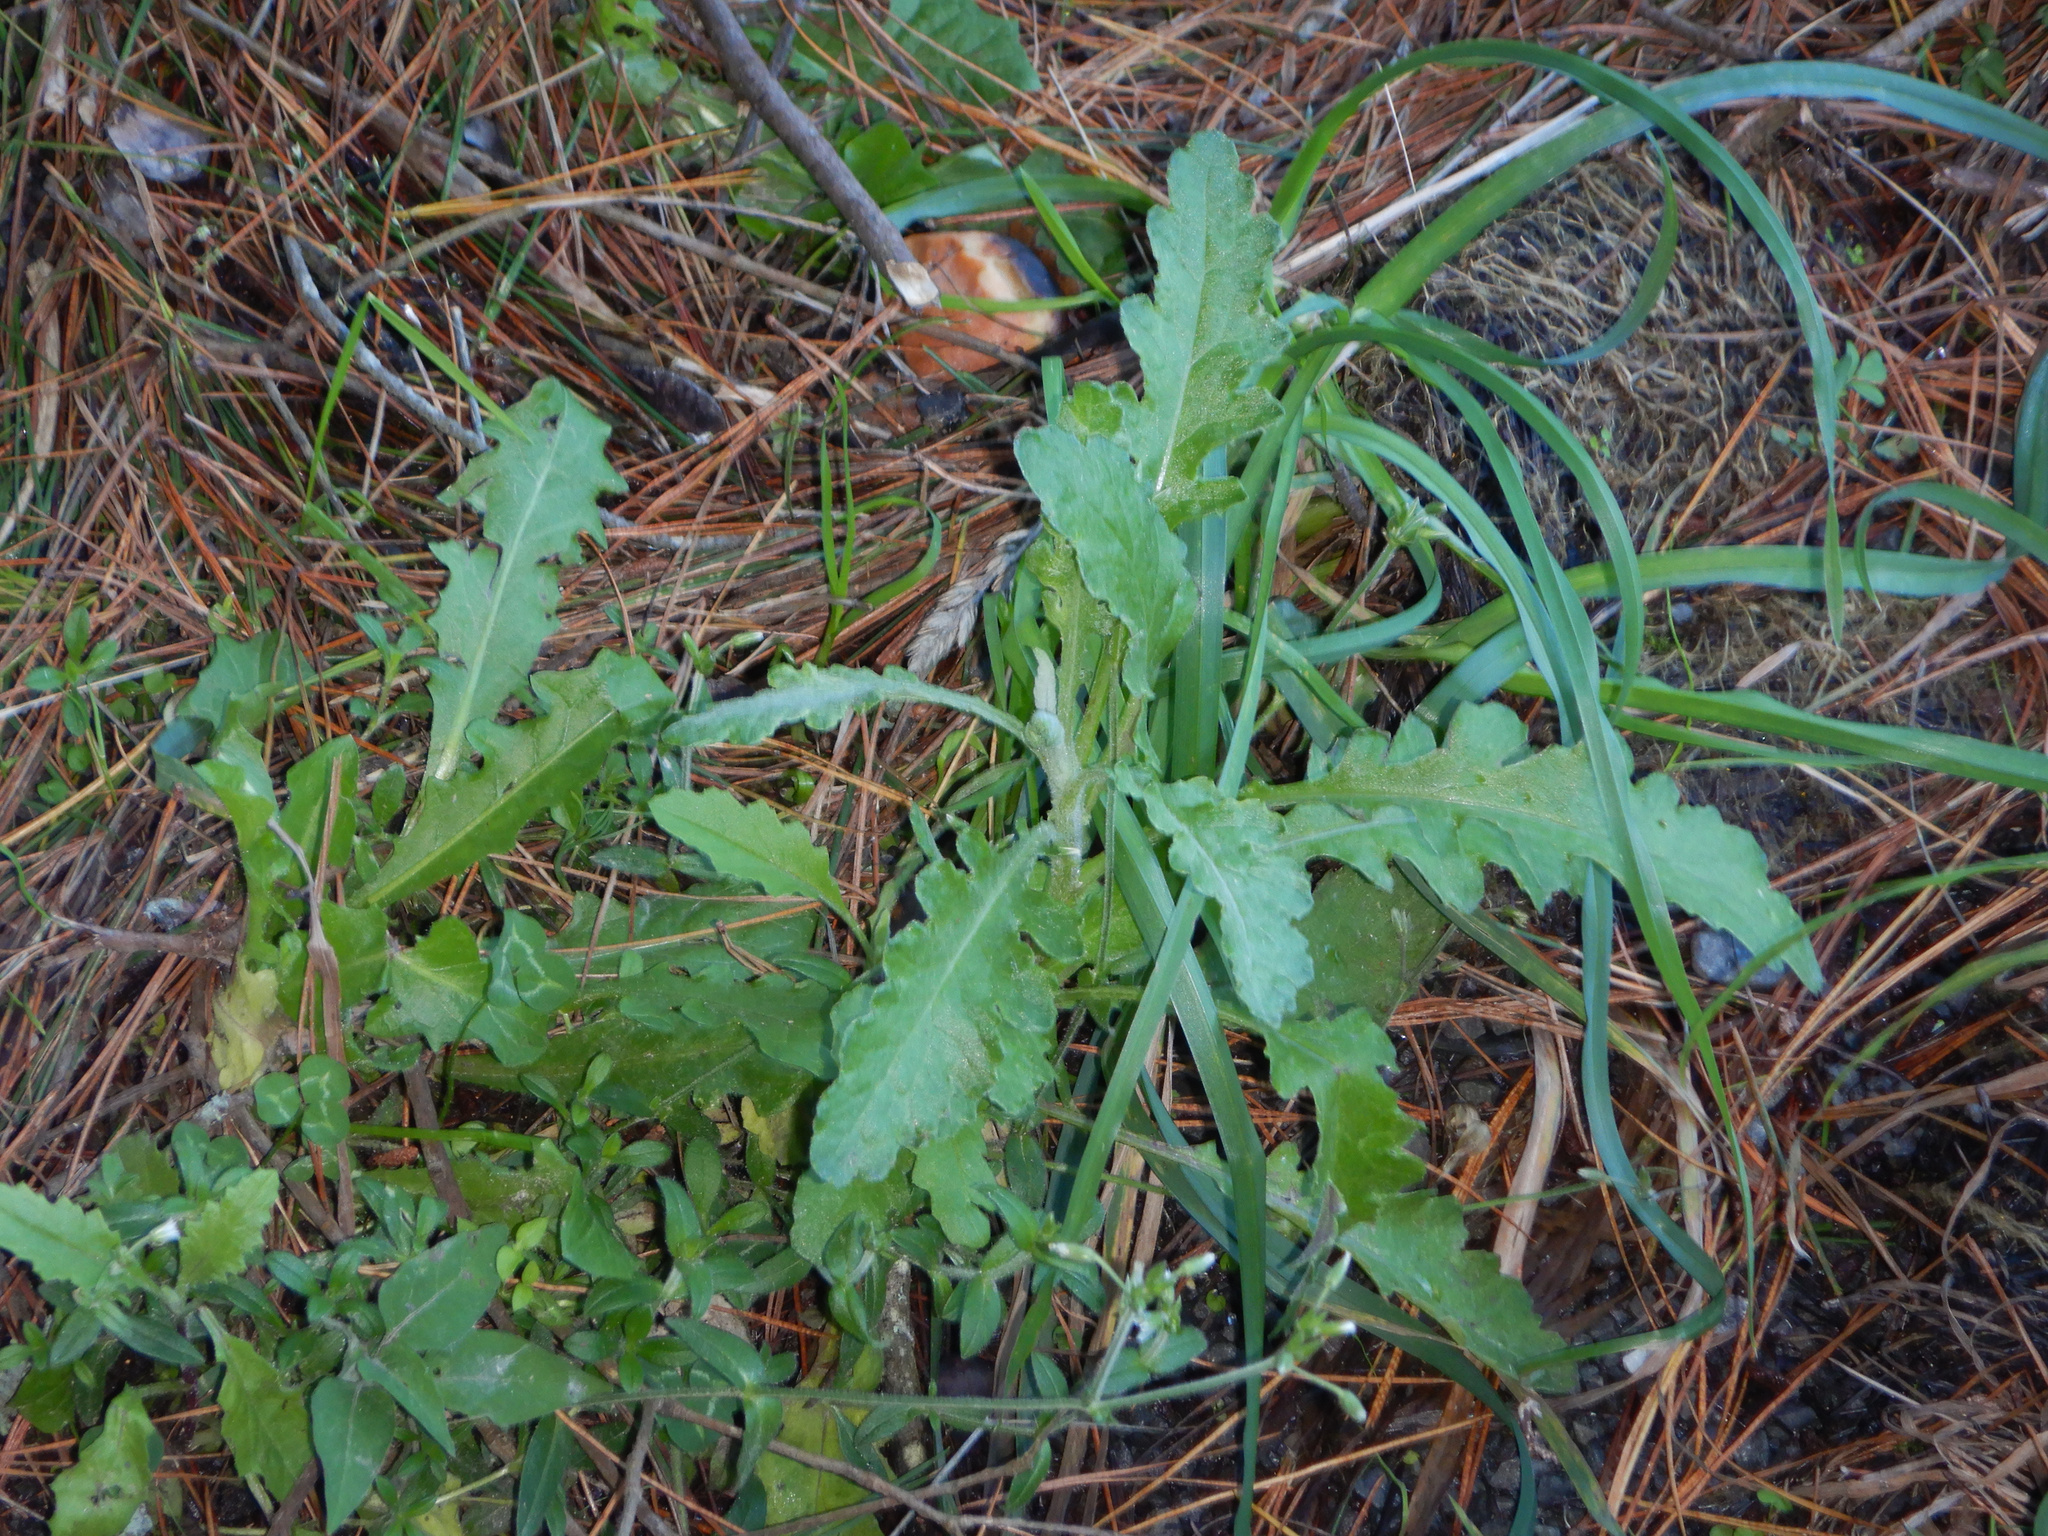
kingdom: Plantae
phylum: Tracheophyta
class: Magnoliopsida
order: Asterales
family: Asteraceae
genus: Senecio
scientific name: Senecio glomeratus
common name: Cutleaf burnweed
